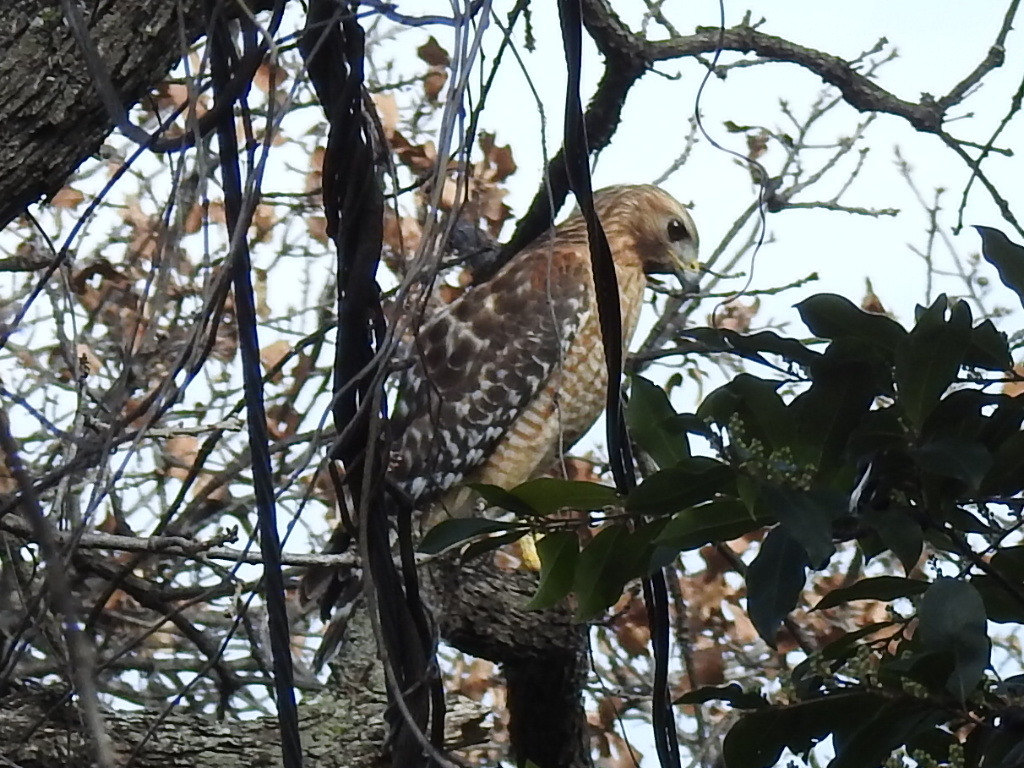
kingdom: Animalia
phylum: Chordata
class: Aves
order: Accipitriformes
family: Accipitridae
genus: Buteo
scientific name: Buteo lineatus
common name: Red-shouldered hawk
